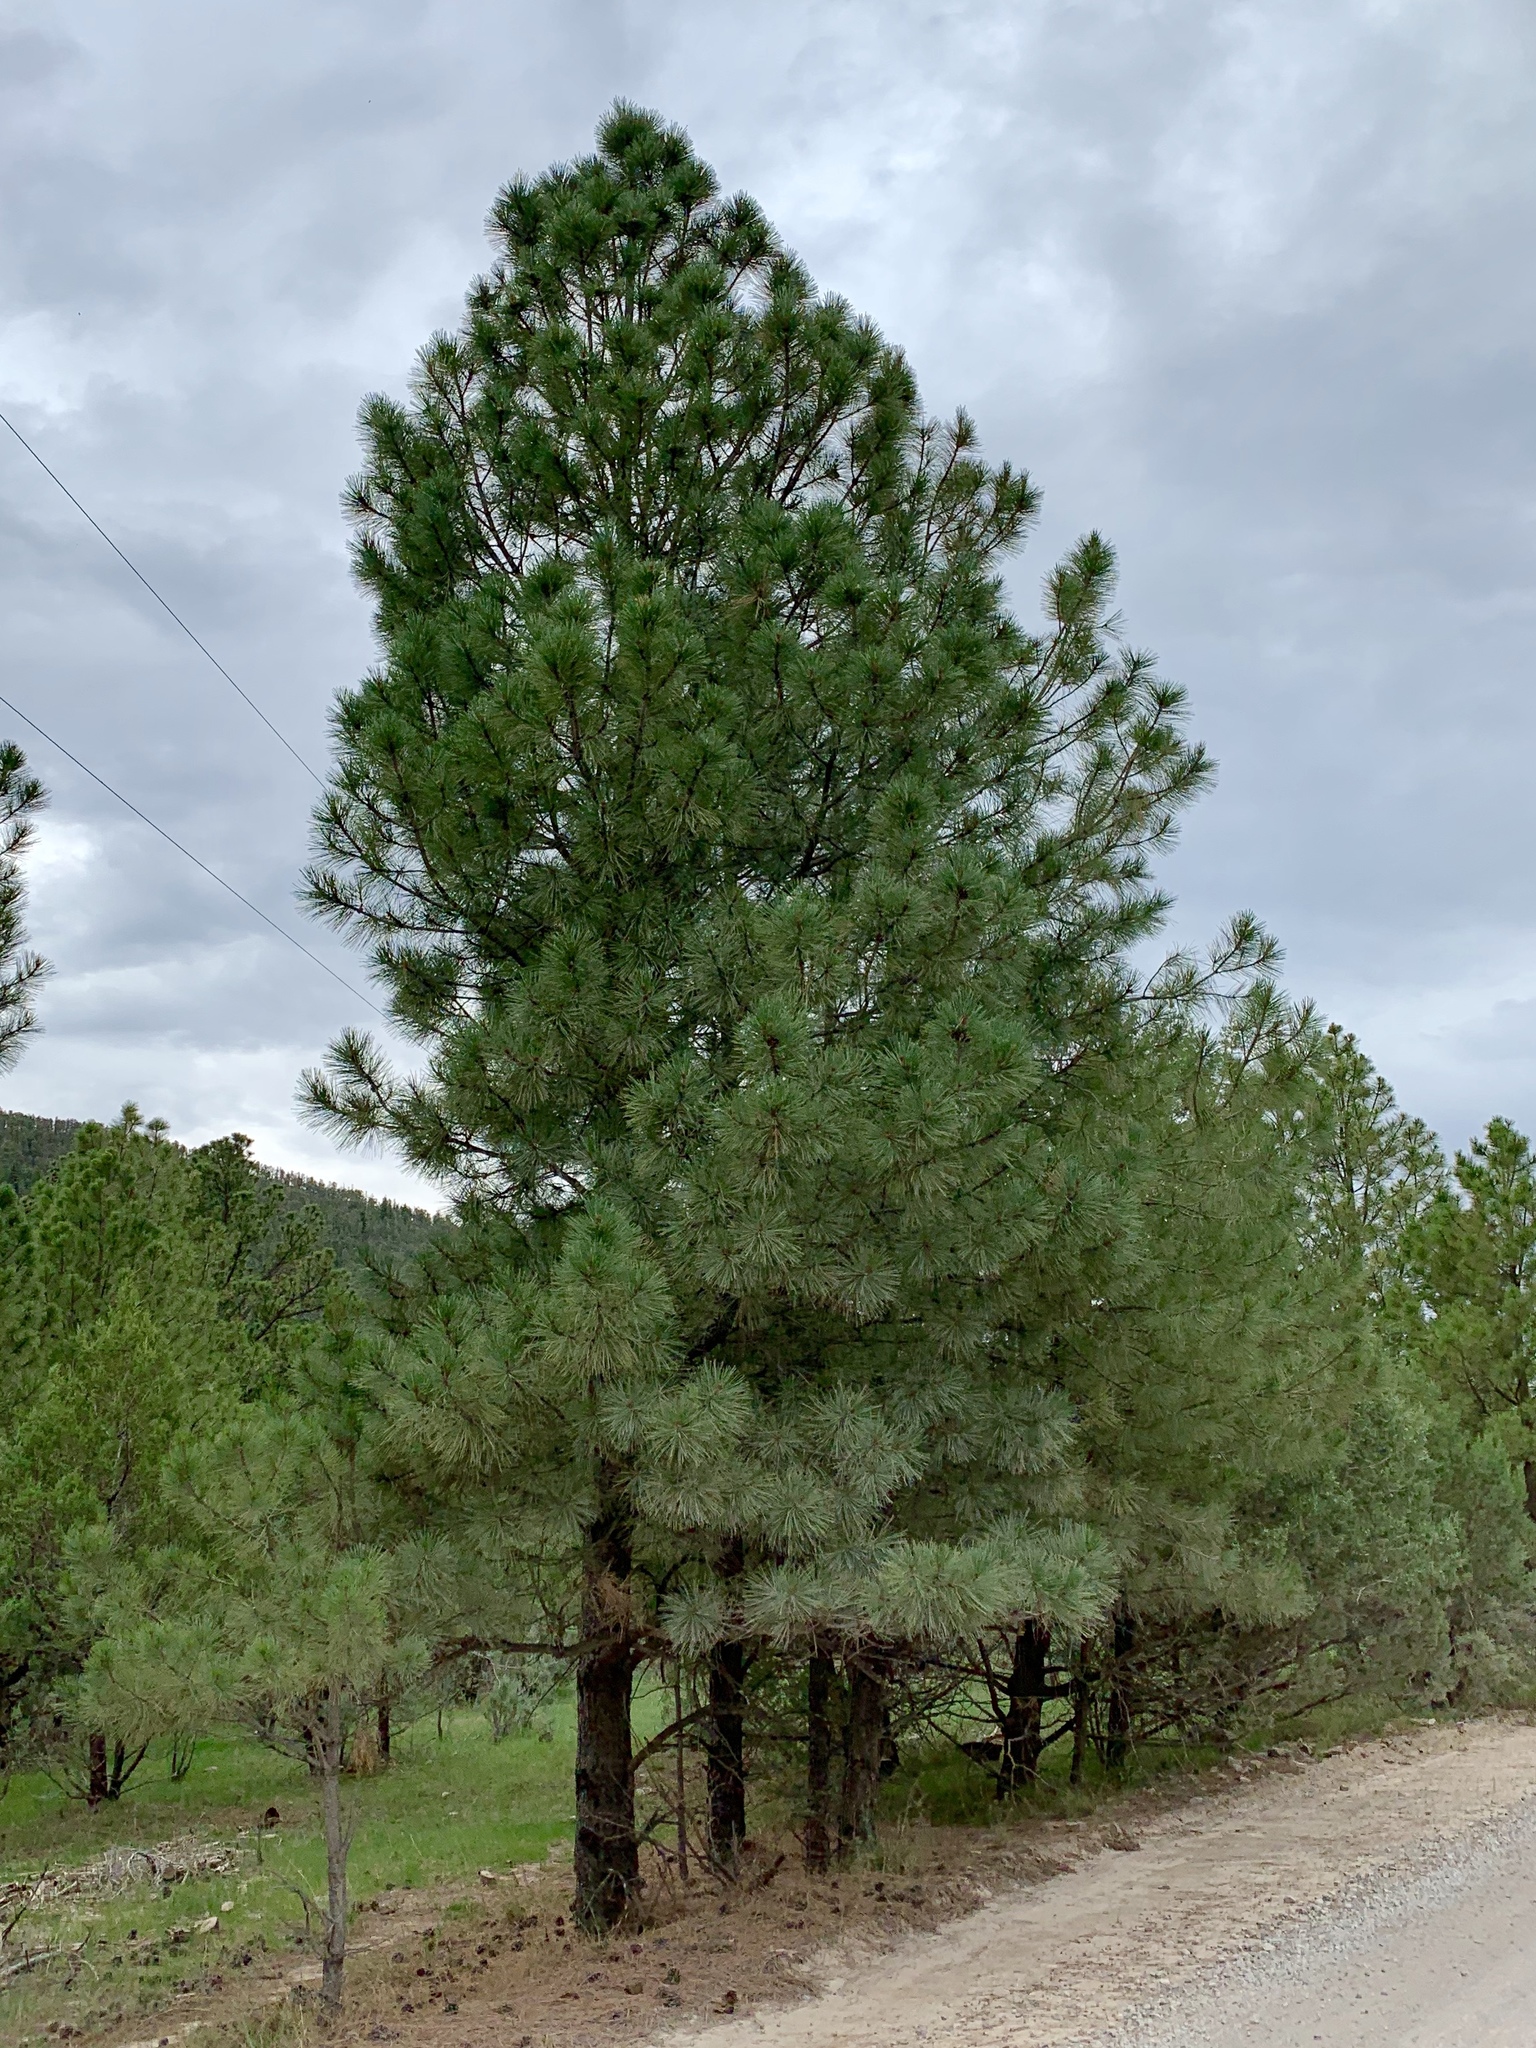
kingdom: Plantae
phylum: Tracheophyta
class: Pinopsida
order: Pinales
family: Pinaceae
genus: Pinus
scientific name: Pinus ponderosa
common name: Western yellow-pine
